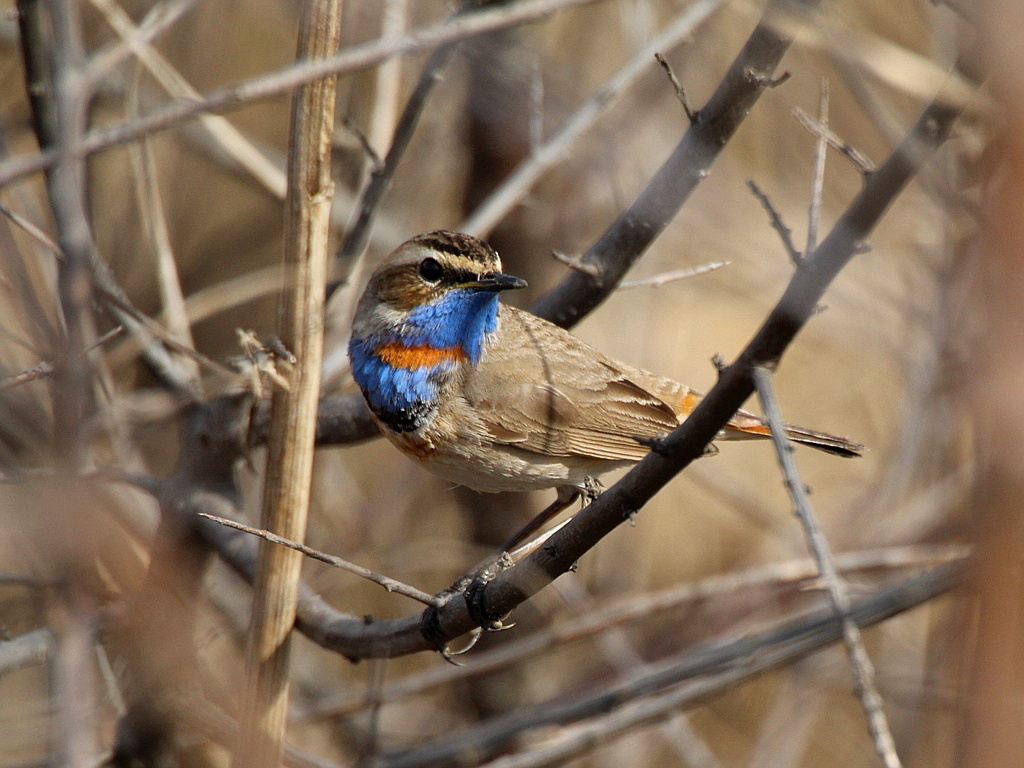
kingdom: Animalia
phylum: Chordata
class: Aves
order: Passeriformes
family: Muscicapidae
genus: Luscinia
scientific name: Luscinia svecica
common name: Bluethroat
